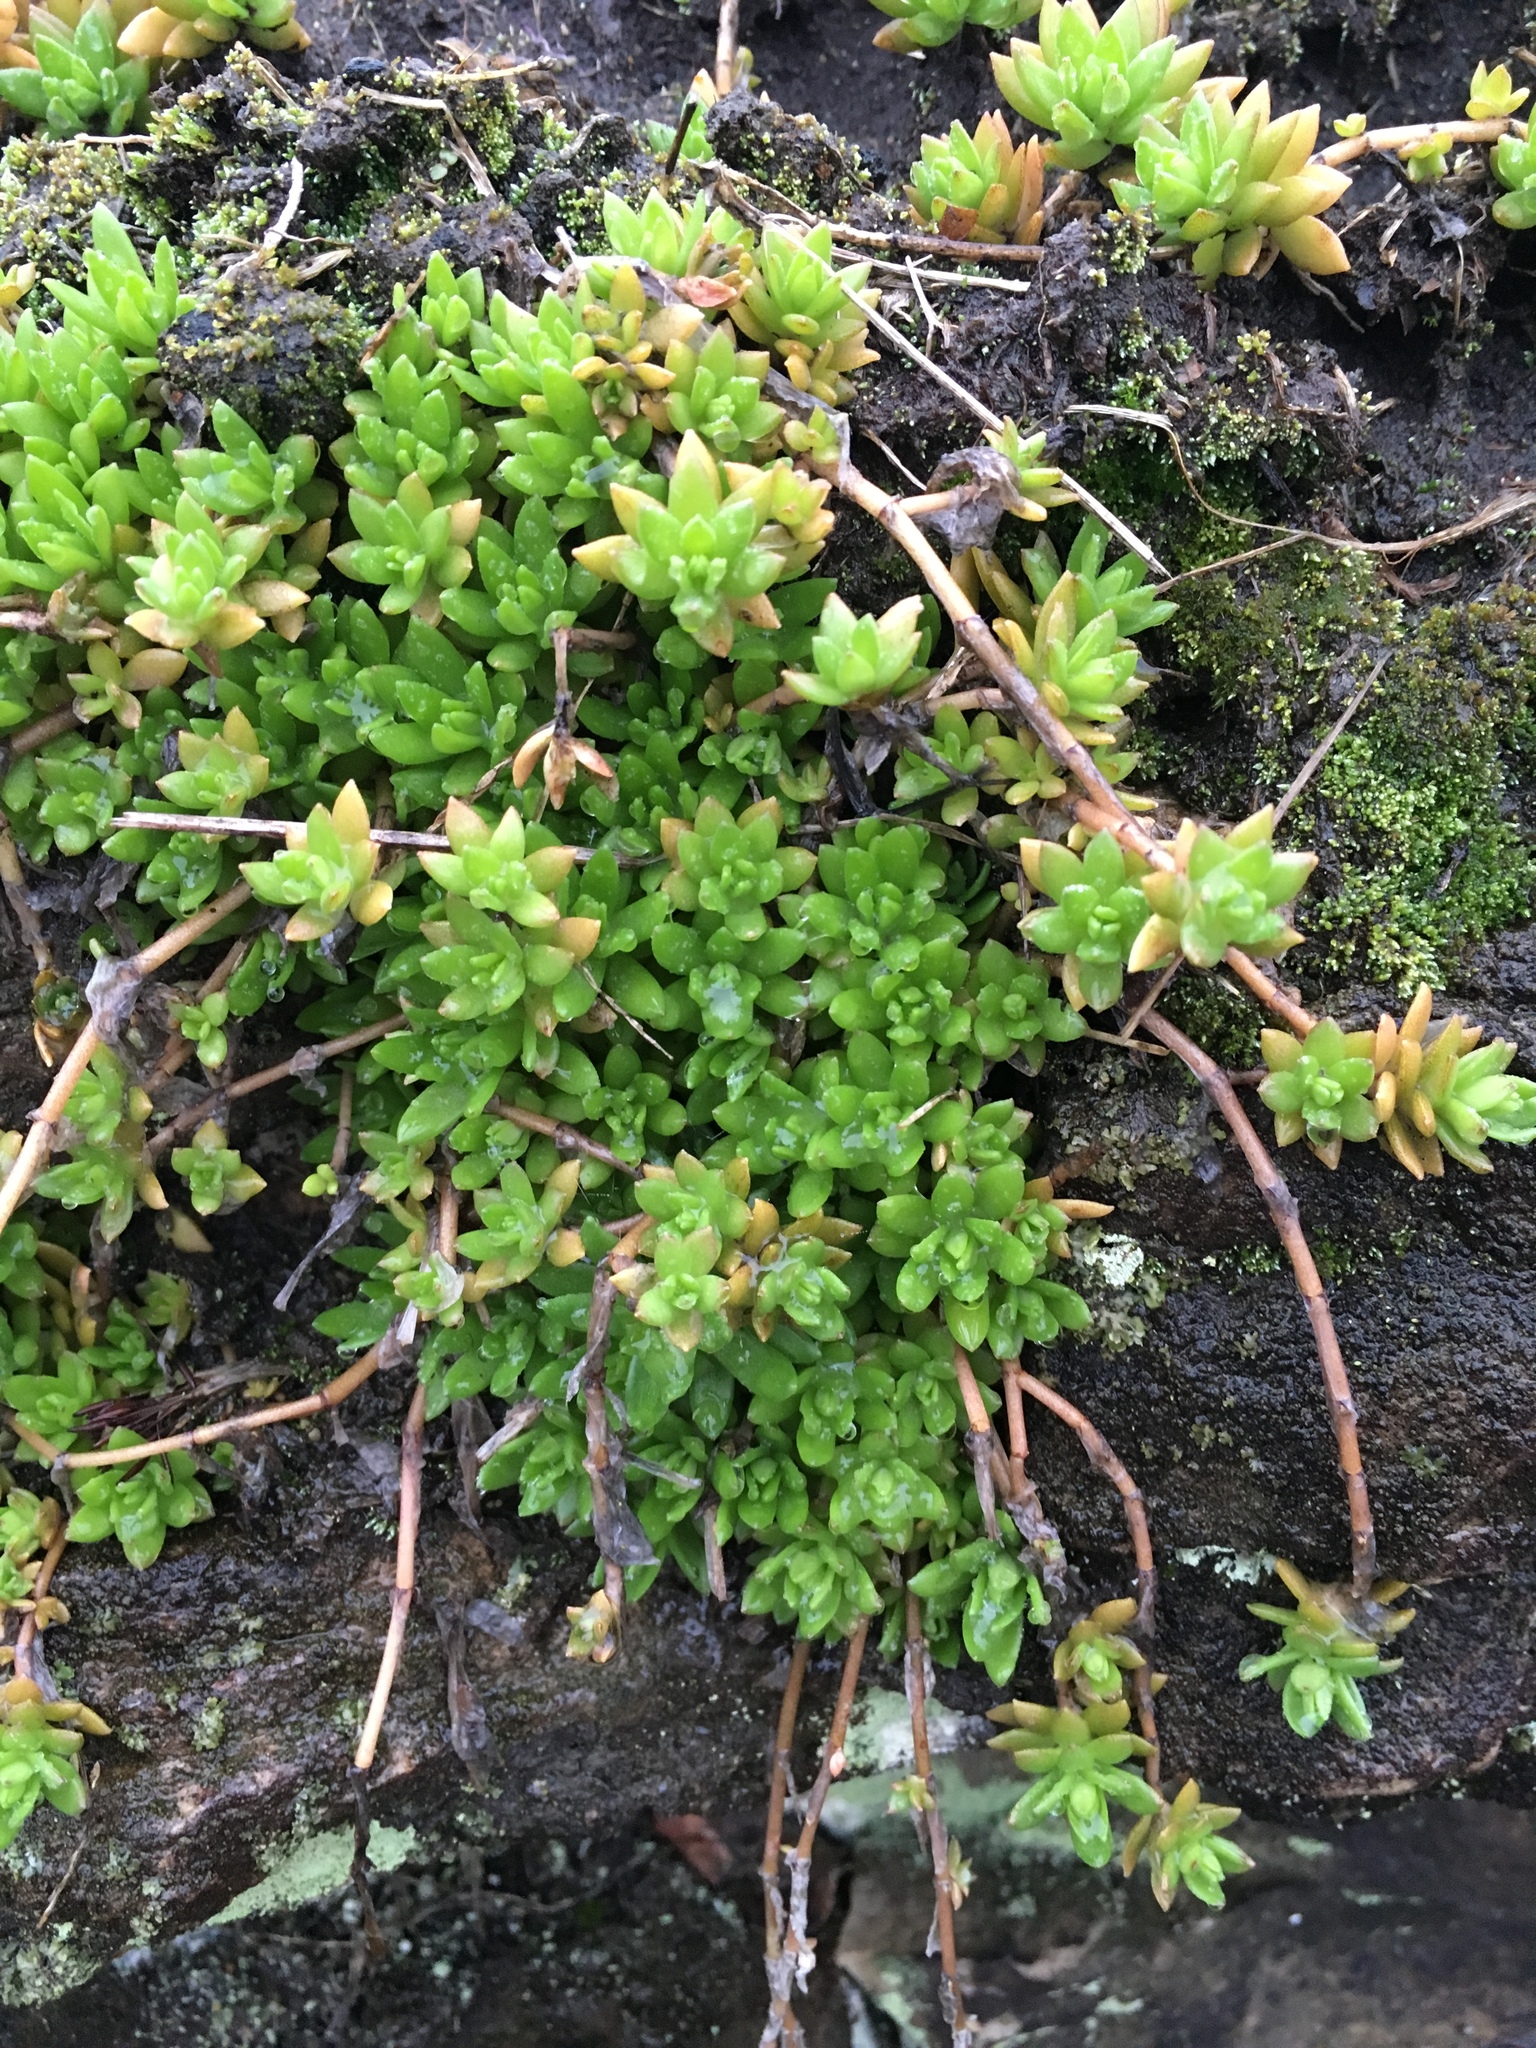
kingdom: Plantae
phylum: Tracheophyta
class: Magnoliopsida
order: Saxifragales
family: Crassulaceae
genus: Sedum
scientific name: Sedum sarmentosum
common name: Stringy stonecrop
